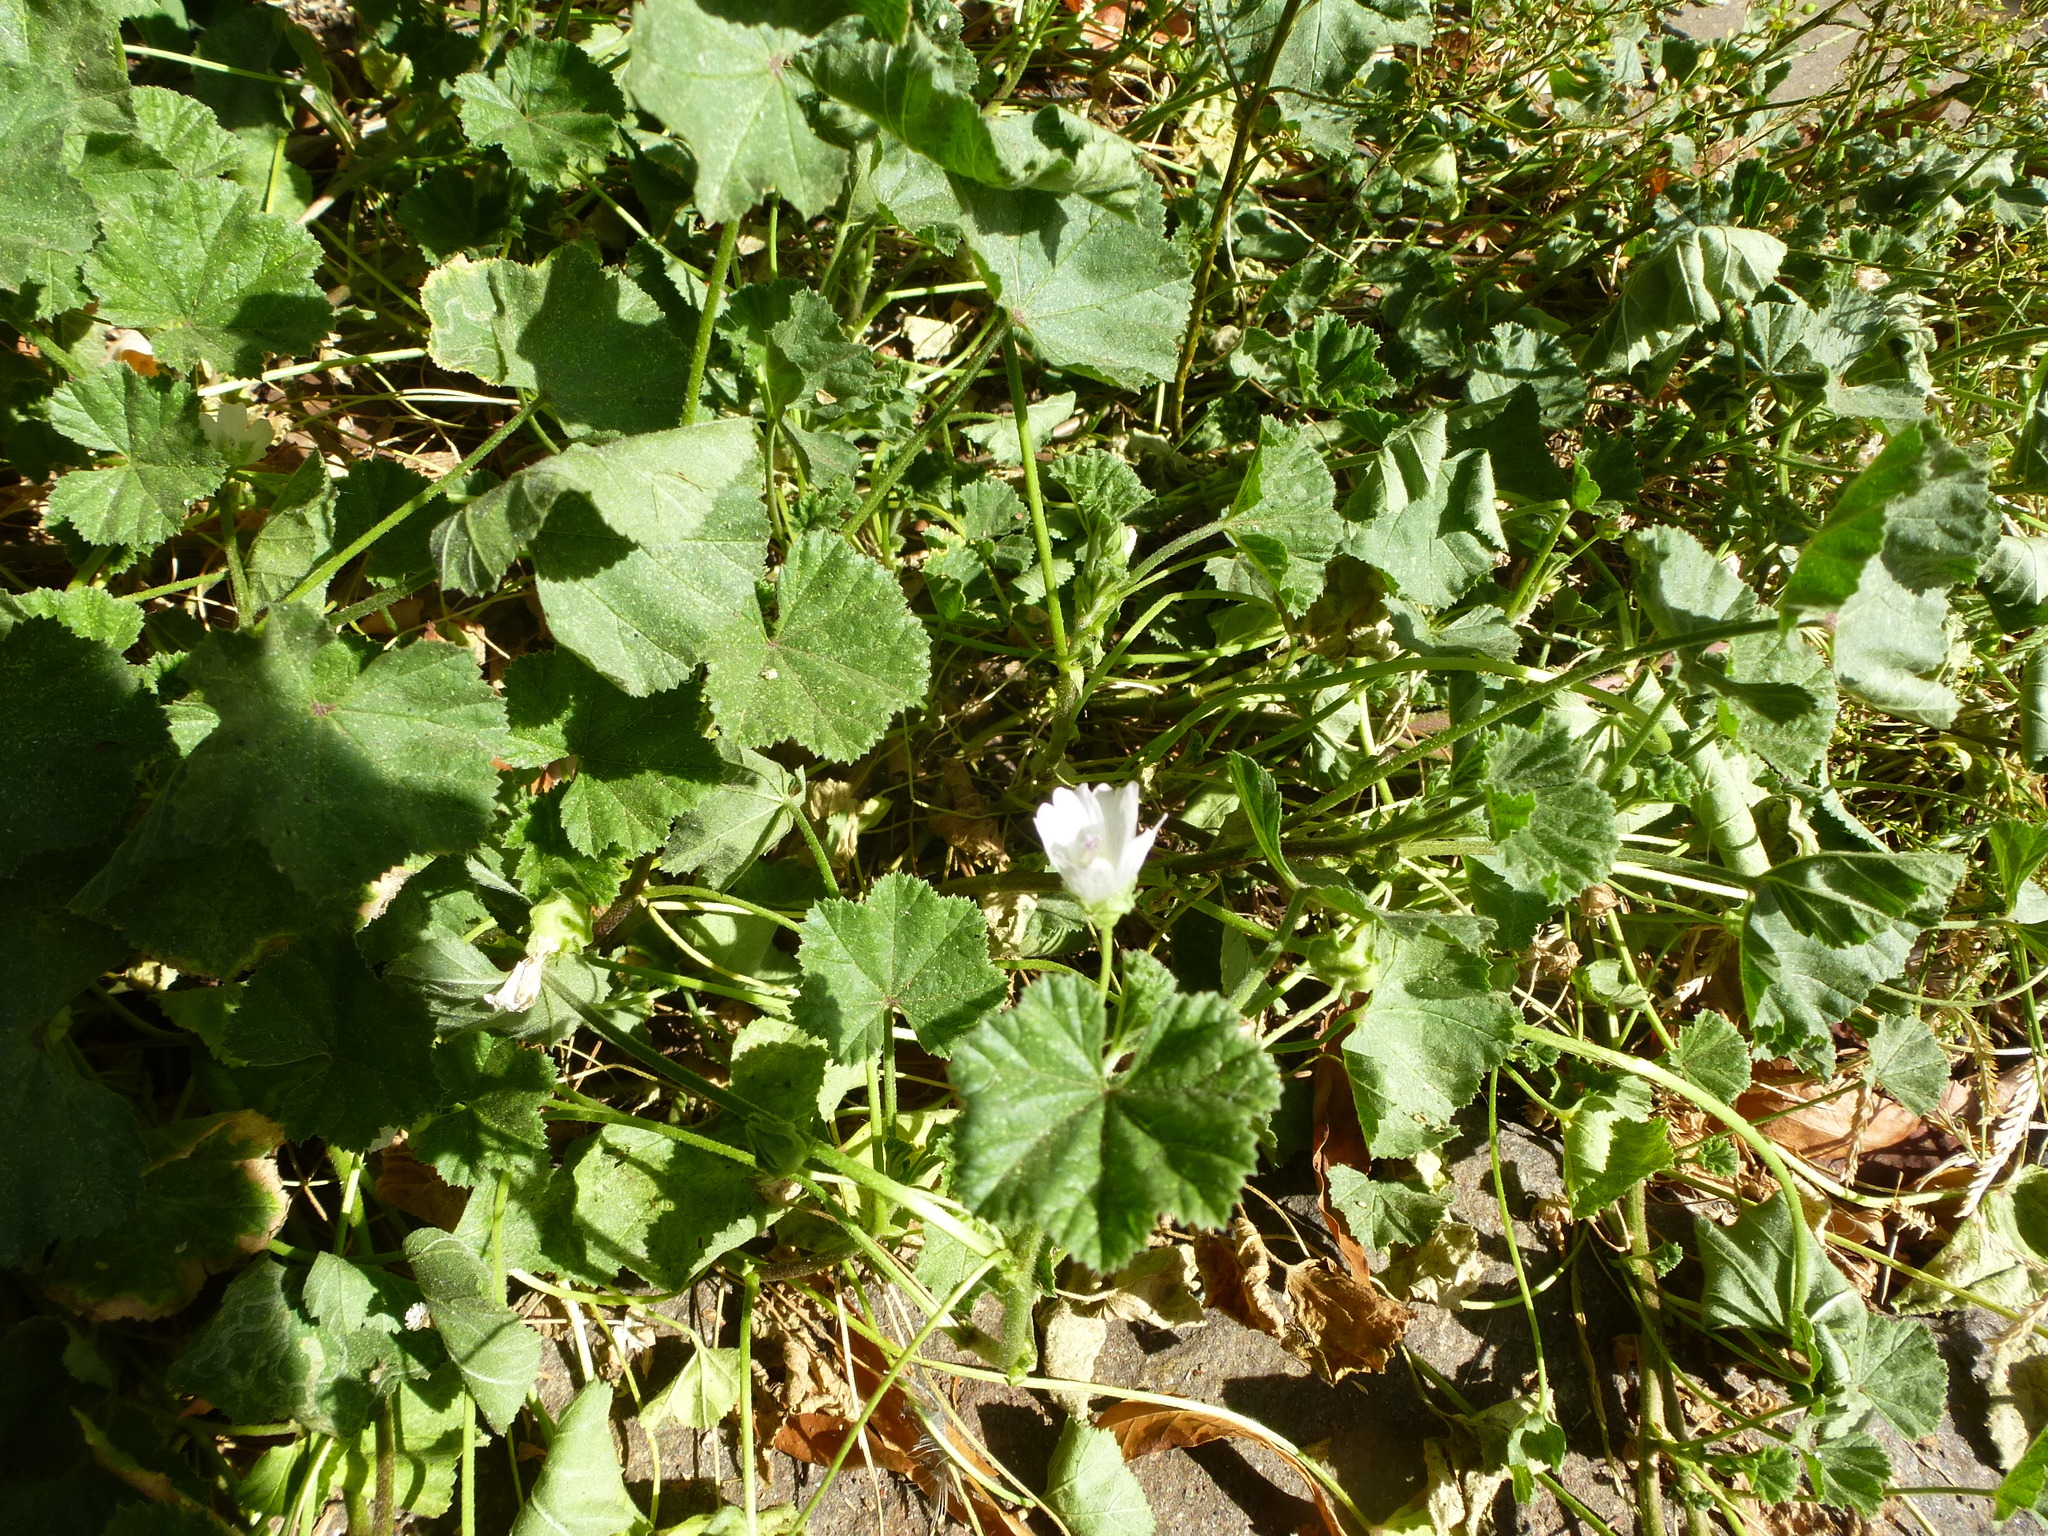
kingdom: Plantae
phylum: Tracheophyta
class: Magnoliopsida
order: Malvales
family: Malvaceae
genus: Malva
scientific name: Malva neglecta
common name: Common mallow
